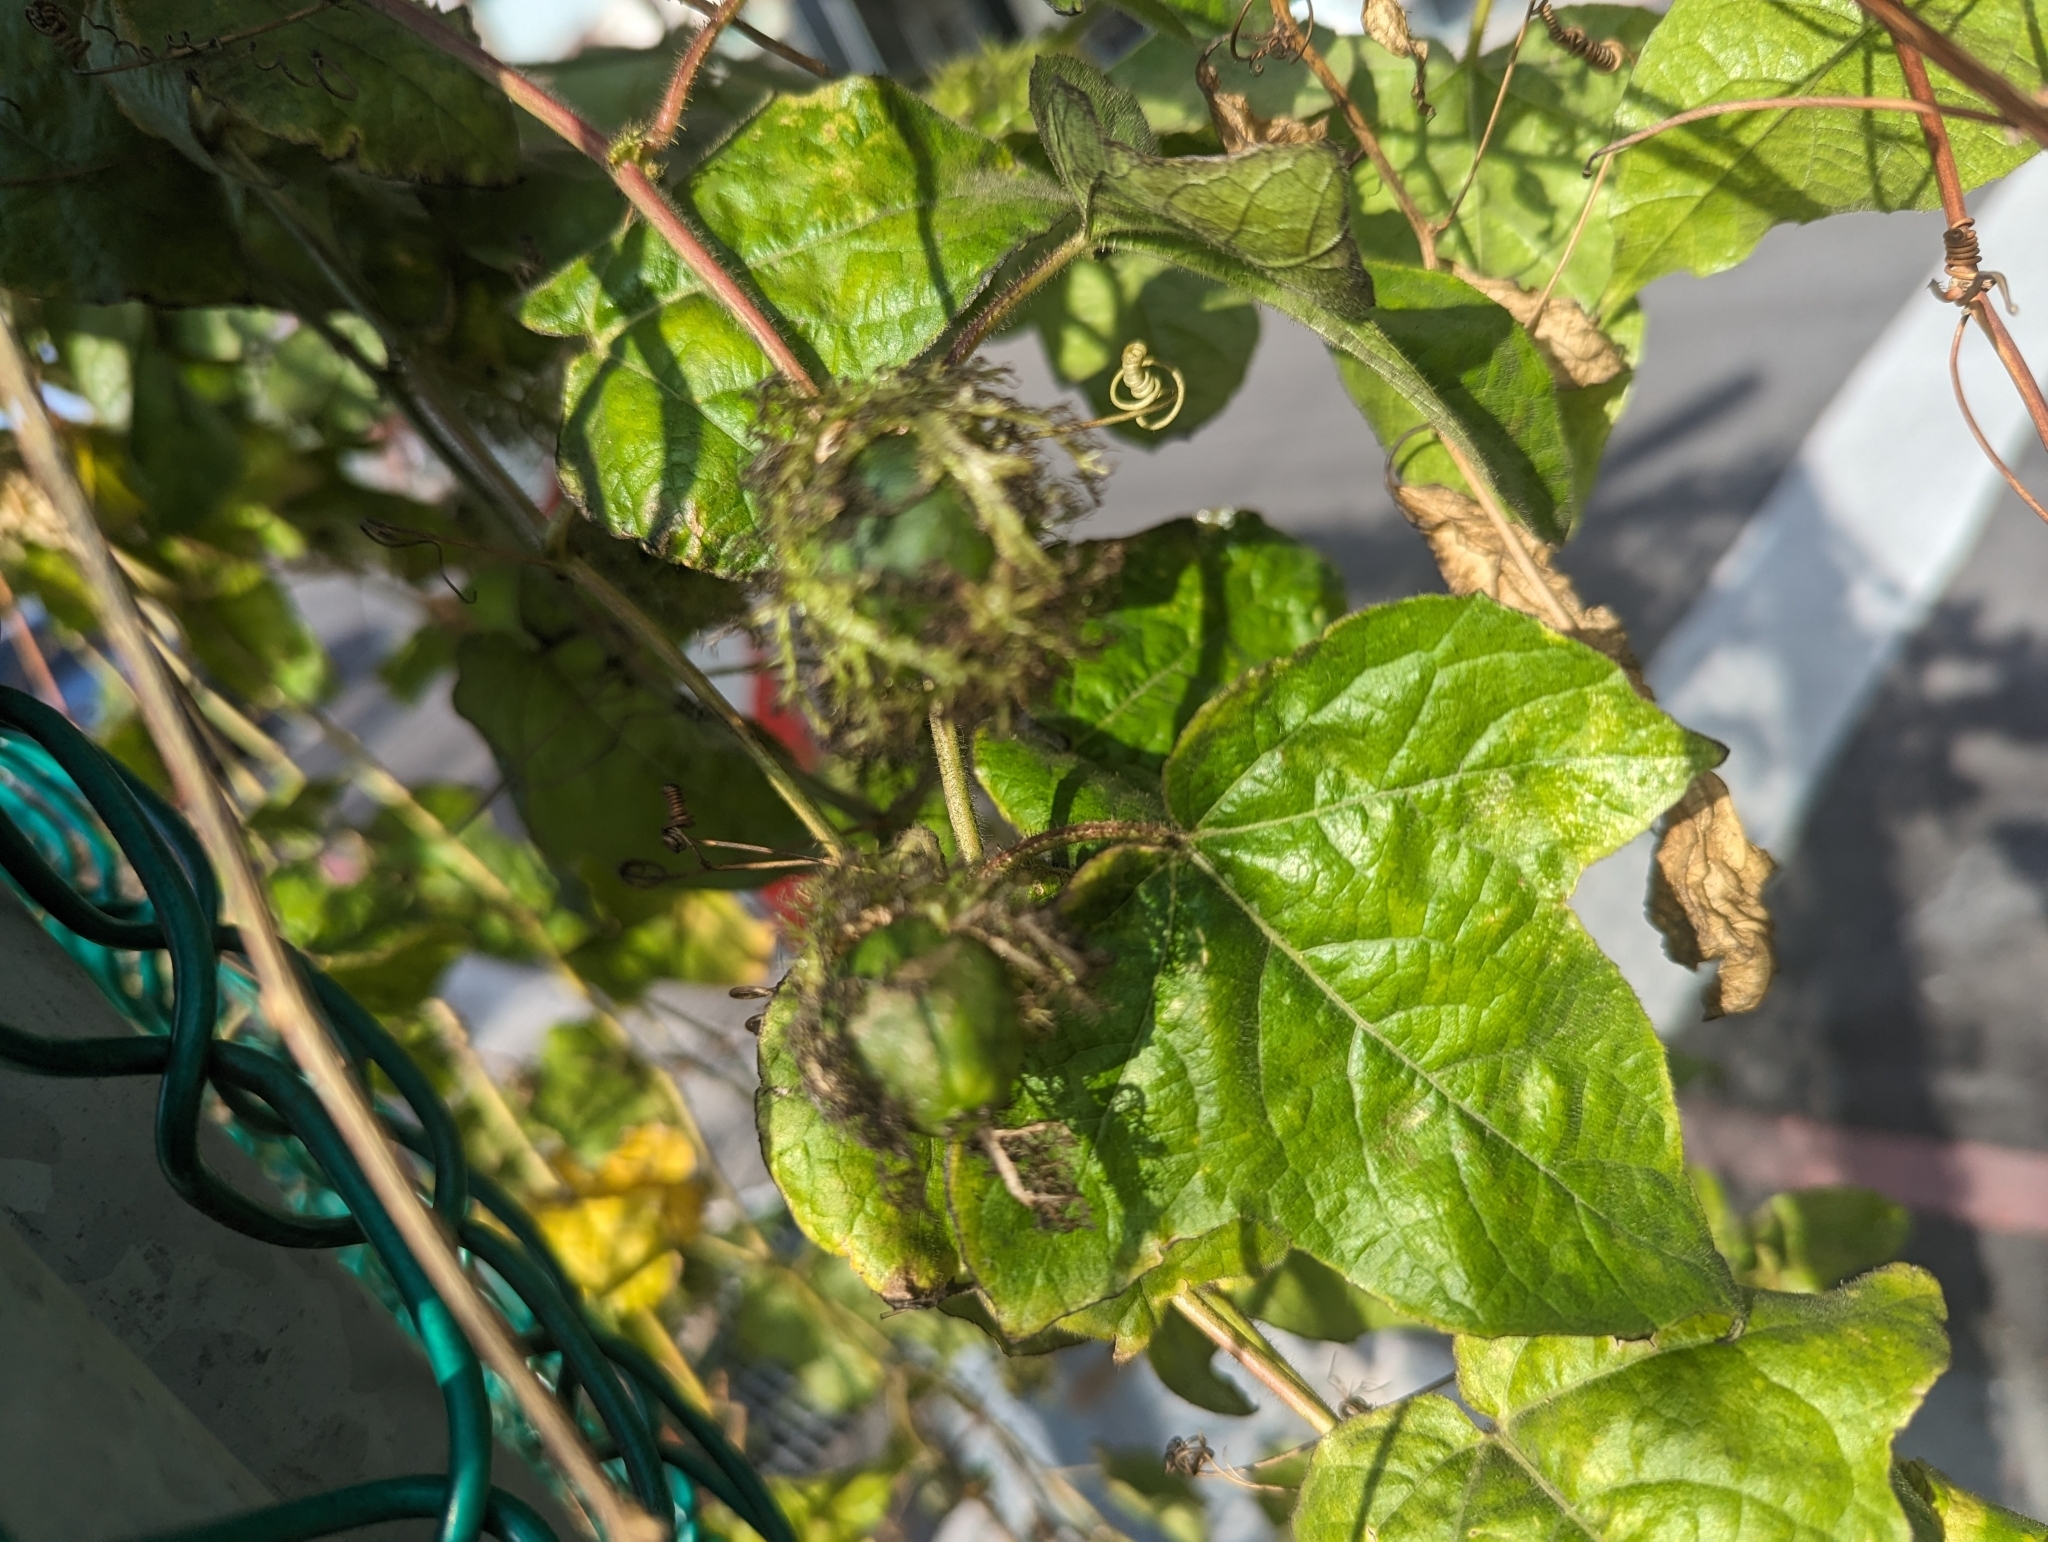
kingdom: Plantae
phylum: Tracheophyta
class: Magnoliopsida
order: Malpighiales
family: Passifloraceae
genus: Passiflora
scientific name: Passiflora vesicaria
